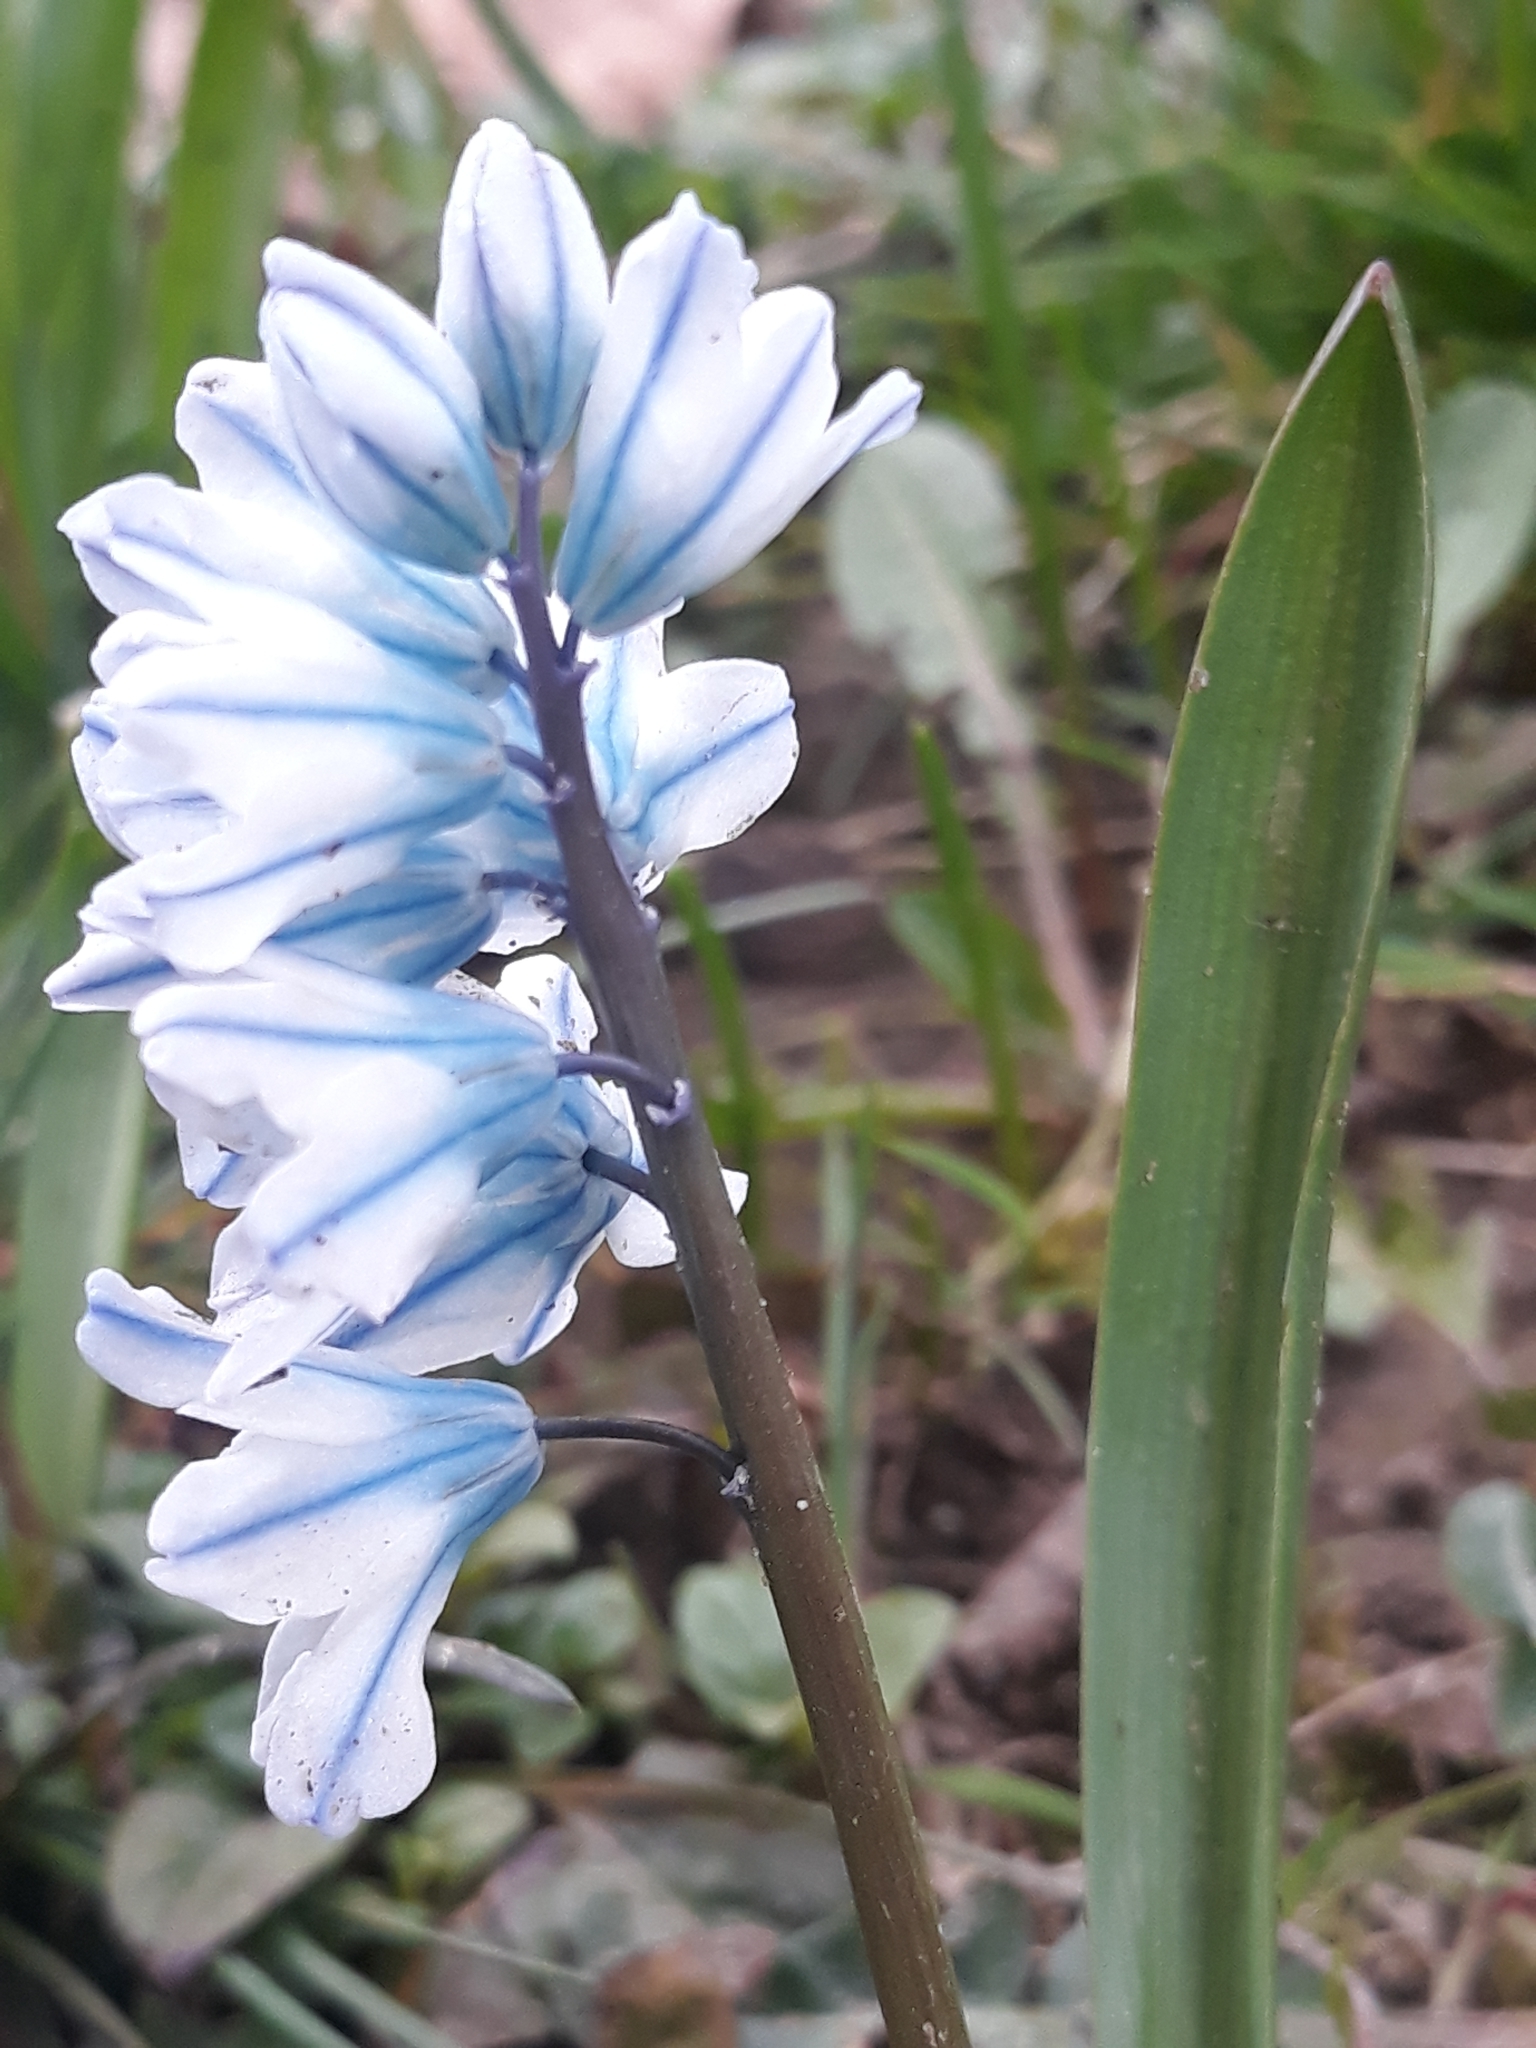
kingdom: Plantae
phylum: Tracheophyta
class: Liliopsida
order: Asparagales
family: Asparagaceae
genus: Puschkinia
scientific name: Puschkinia scilloides
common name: Striped squill
